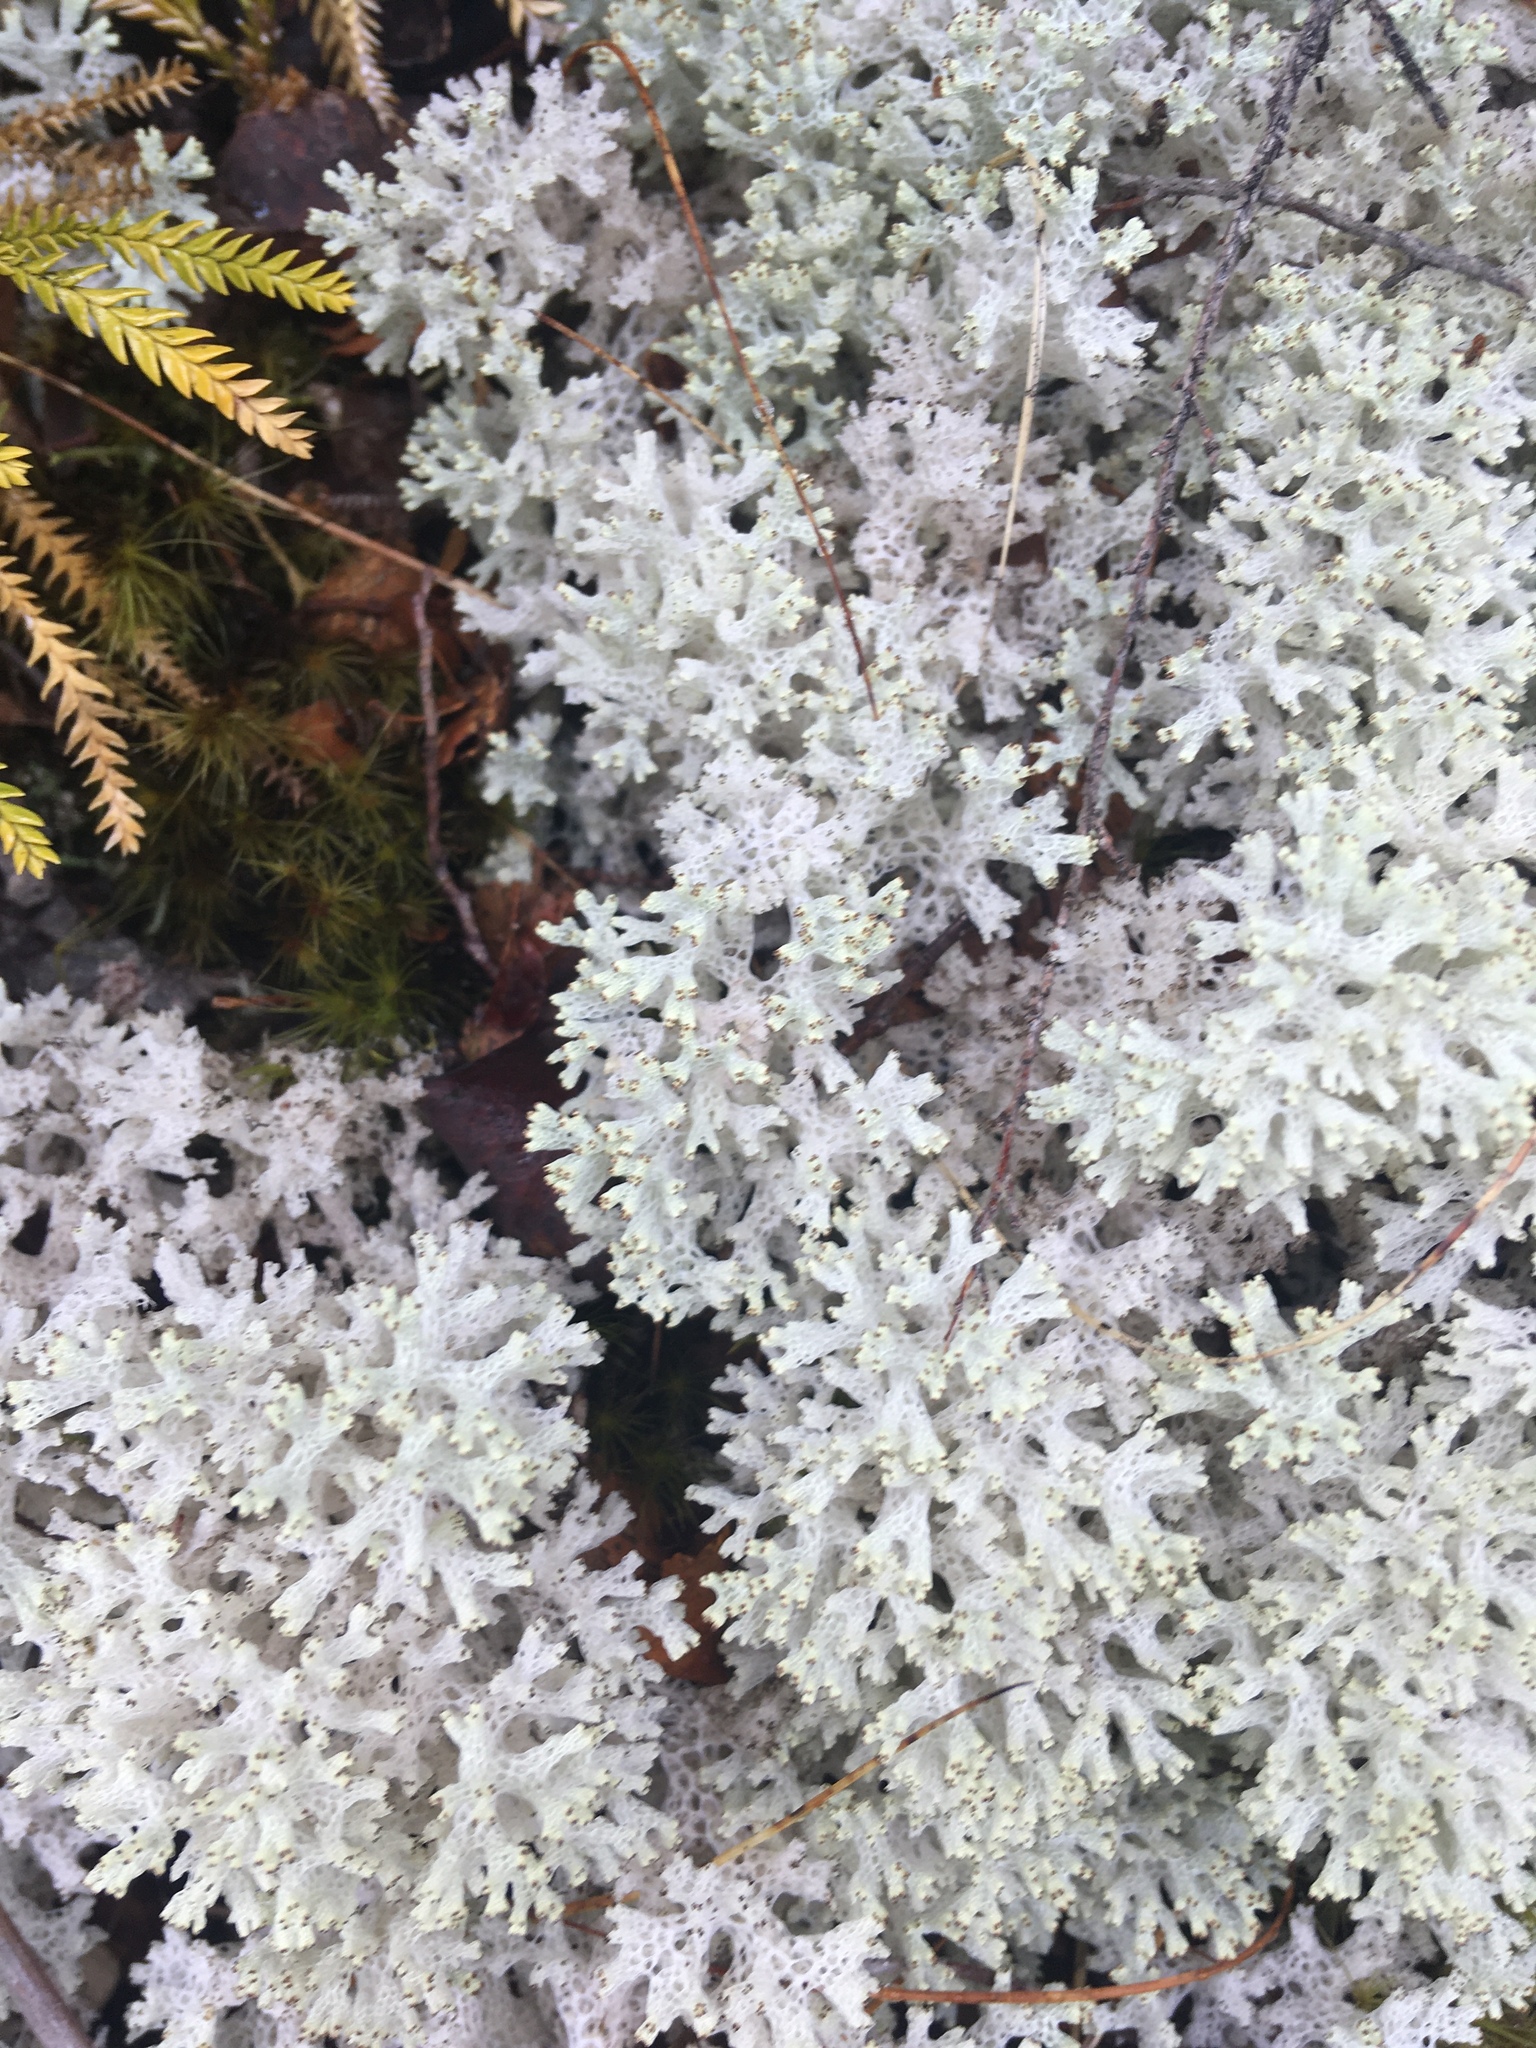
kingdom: Fungi
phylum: Ascomycota
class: Lecanoromycetes
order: Lecanorales
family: Cladoniaceae
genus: Pulchrocladia
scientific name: Pulchrocladia retipora
